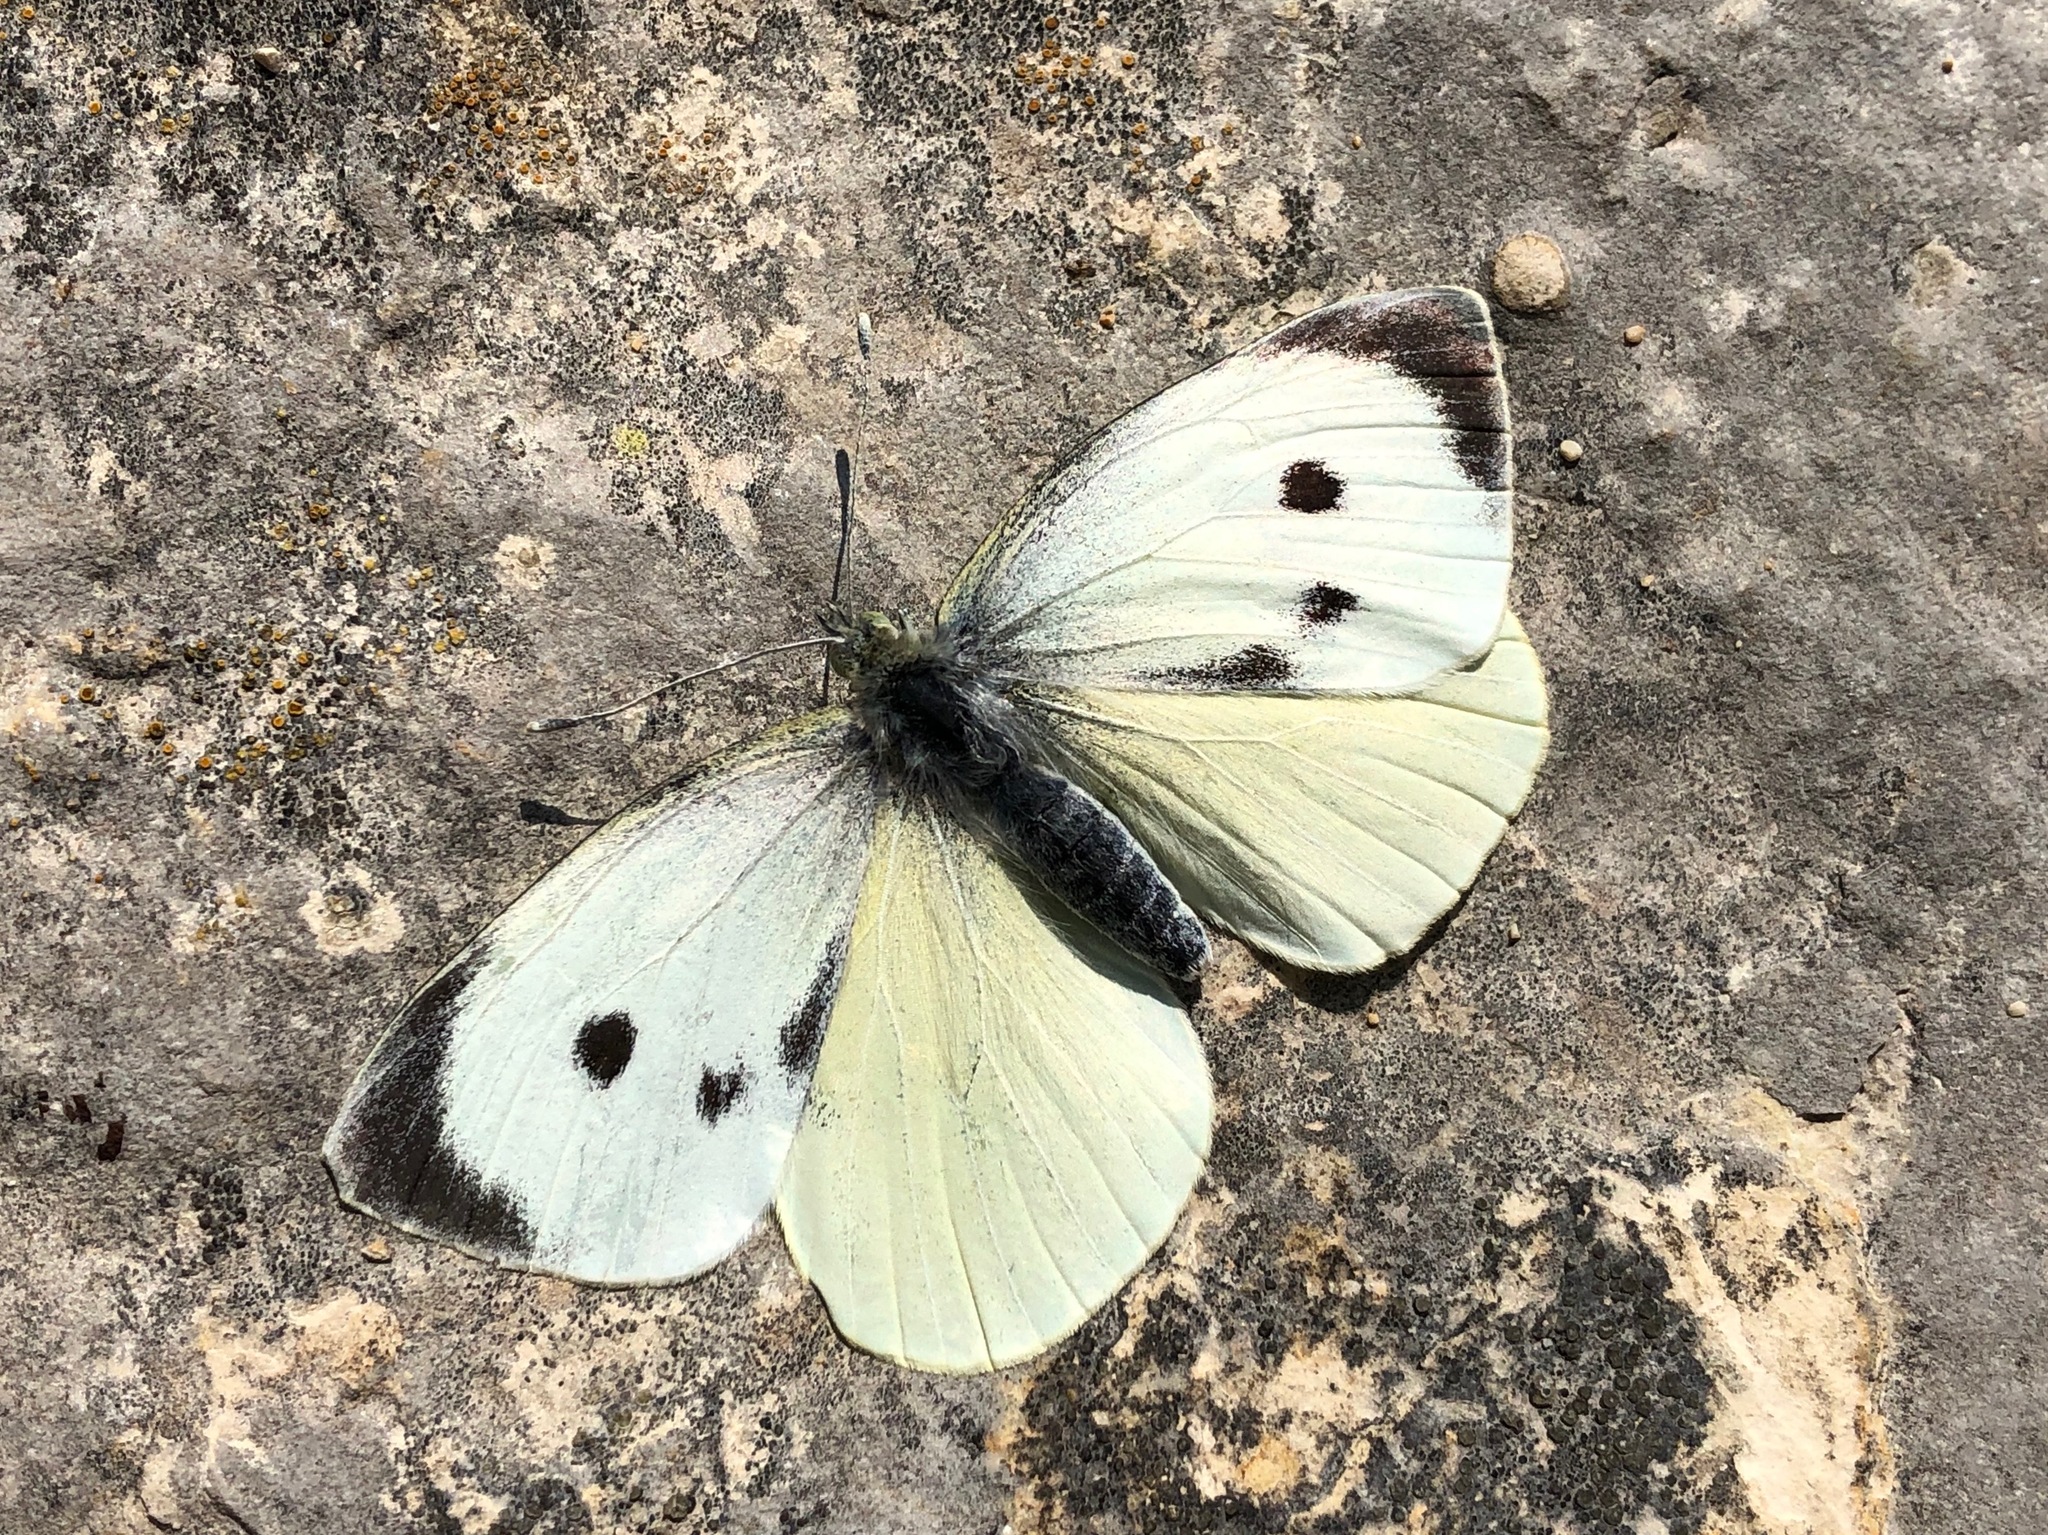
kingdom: Animalia
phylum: Arthropoda
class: Insecta
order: Lepidoptera
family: Pieridae
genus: Pieris
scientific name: Pieris brassicae
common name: Large white
